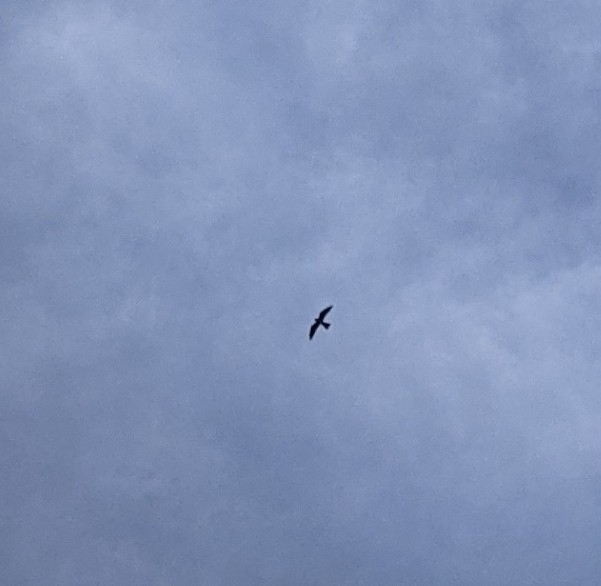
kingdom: Animalia
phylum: Chordata
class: Aves
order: Accipitriformes
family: Accipitridae
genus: Ictinia
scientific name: Ictinia mississippiensis
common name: Mississippi kite
